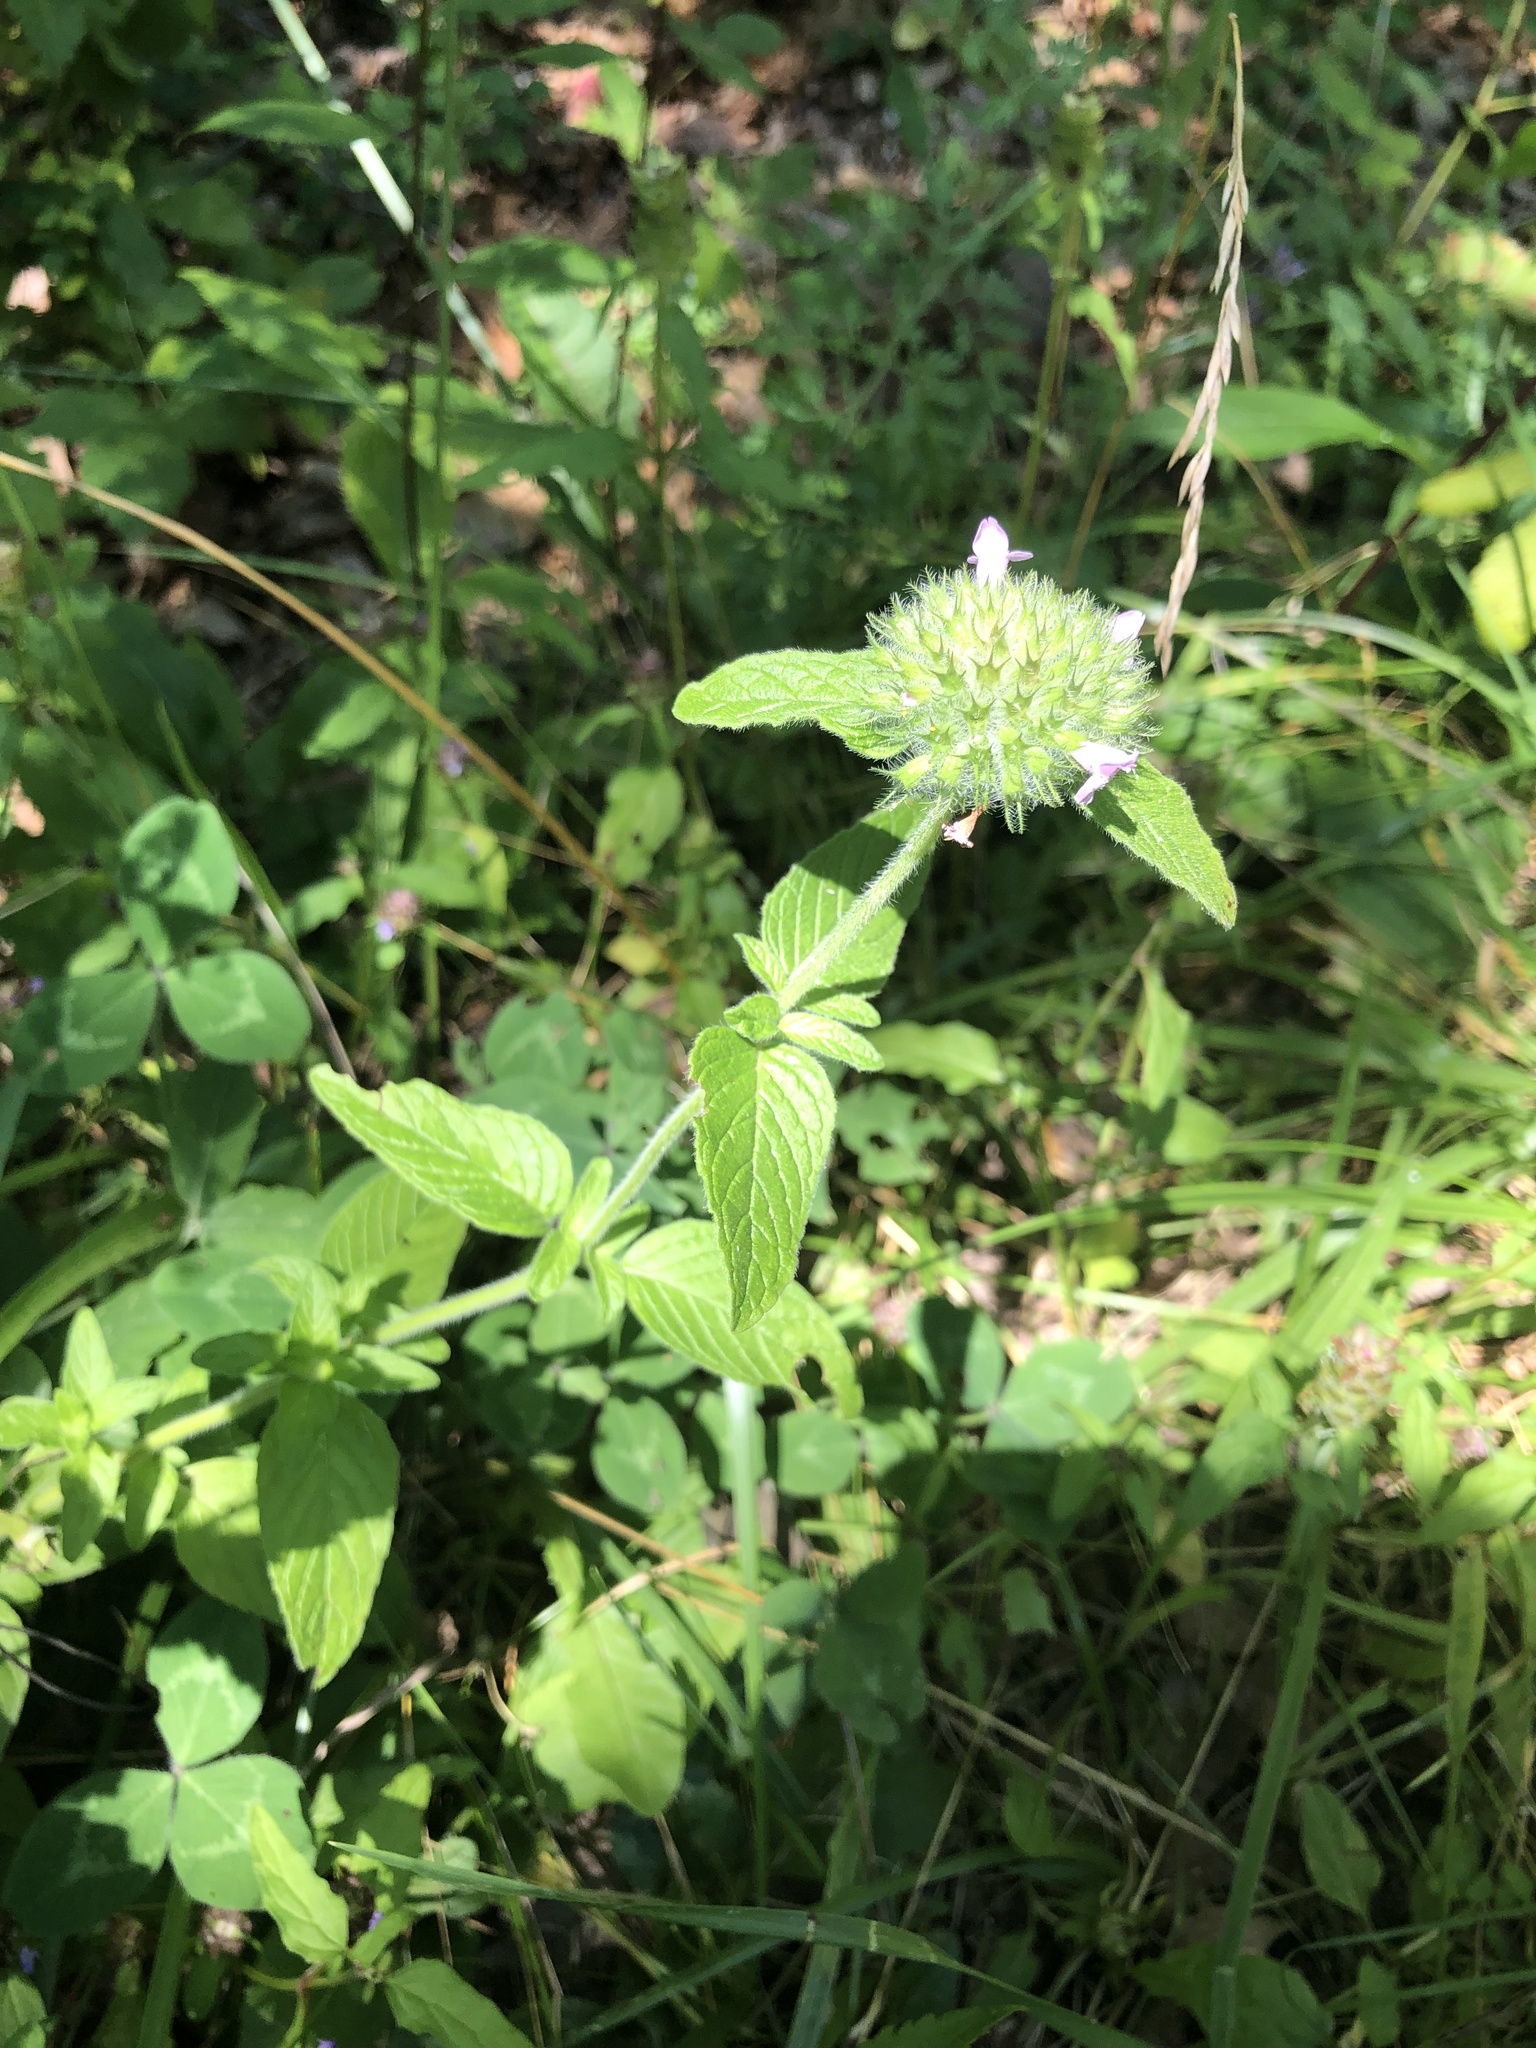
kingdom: Plantae
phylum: Tracheophyta
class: Magnoliopsida
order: Lamiales
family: Lamiaceae
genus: Clinopodium
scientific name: Clinopodium vulgare
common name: Wild basil
